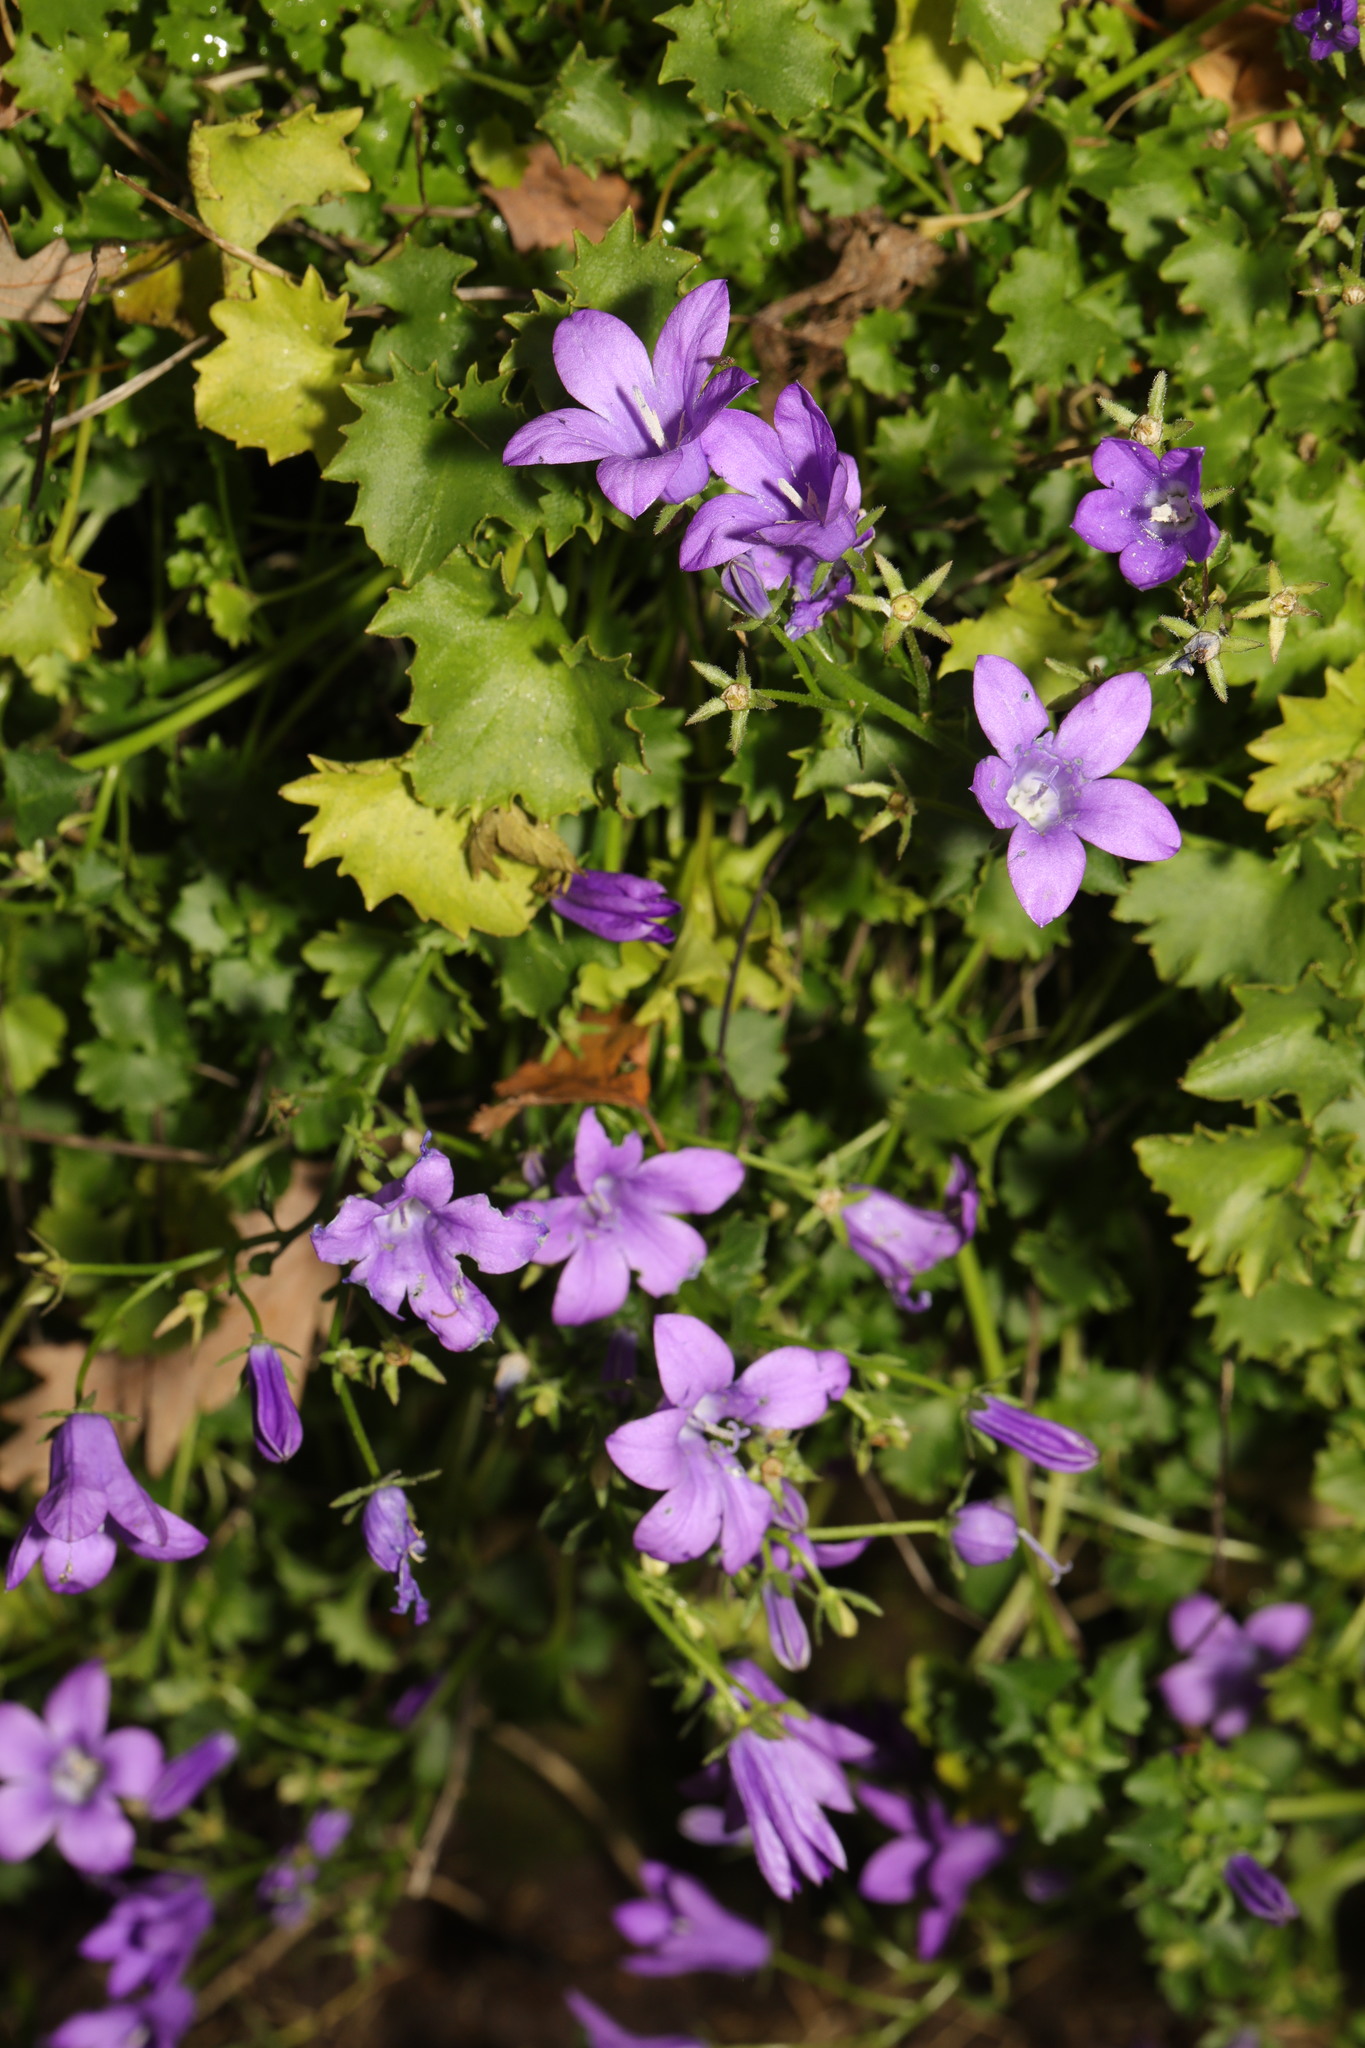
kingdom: Plantae
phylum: Tracheophyta
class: Magnoliopsida
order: Asterales
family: Campanulaceae
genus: Campanula
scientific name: Campanula portenschlagiana
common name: Adria bellflower
